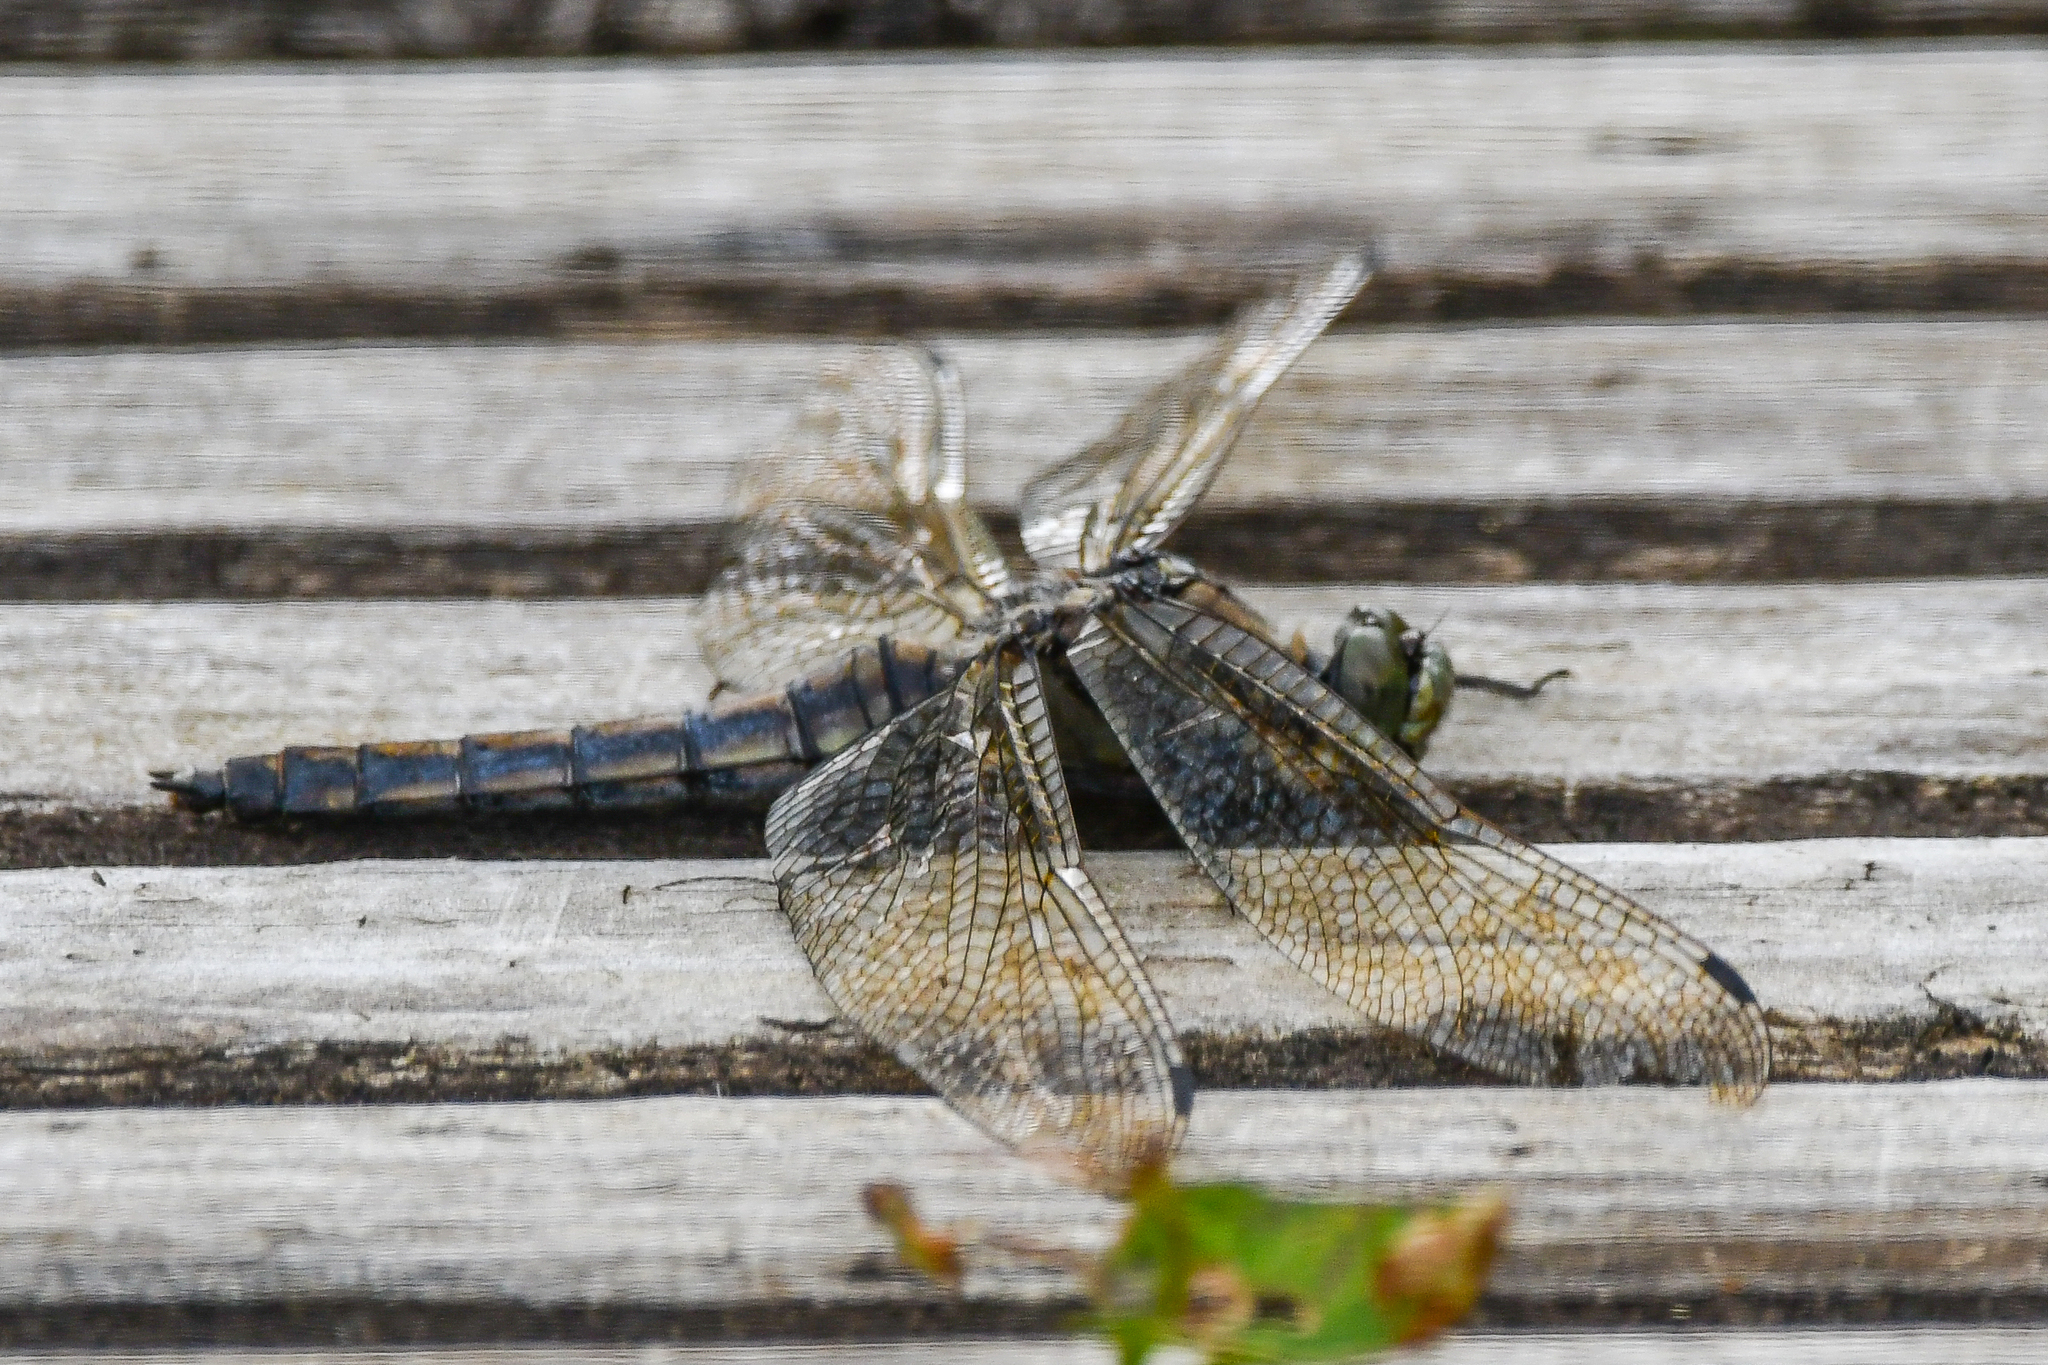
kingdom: Animalia
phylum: Arthropoda
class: Insecta
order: Odonata
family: Libellulidae
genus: Orthetrum
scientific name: Orthetrum cancellatum
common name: Black-tailed skimmer
